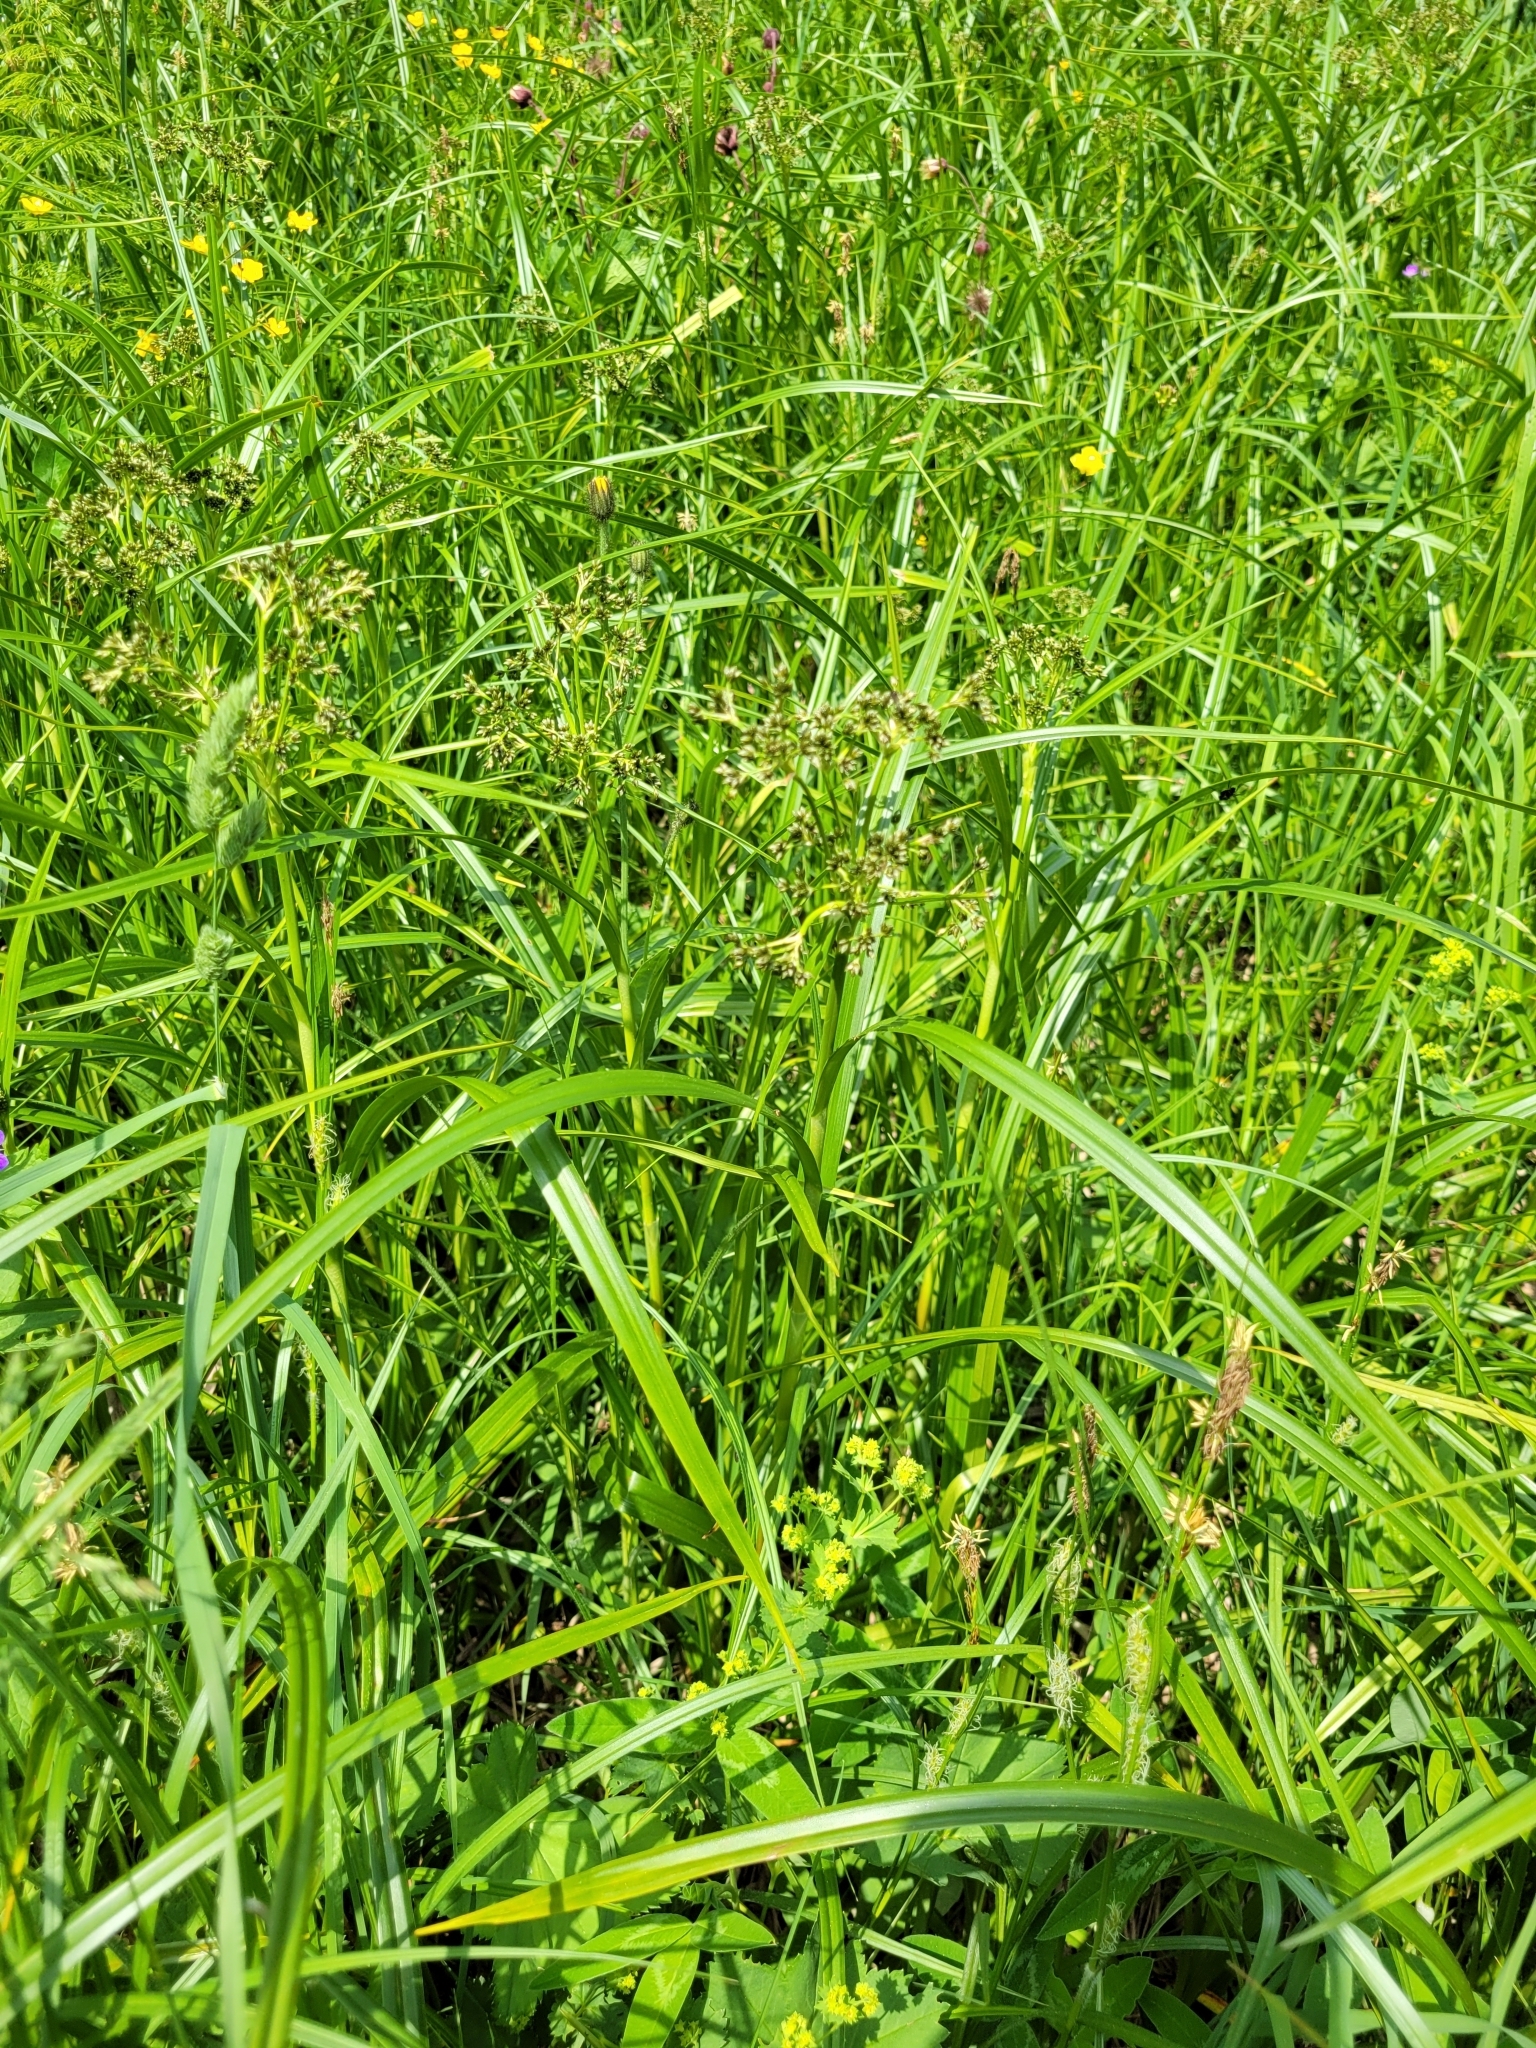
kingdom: Plantae
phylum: Tracheophyta
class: Liliopsida
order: Poales
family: Cyperaceae
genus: Scirpus
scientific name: Scirpus sylvaticus
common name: Wood club-rush
